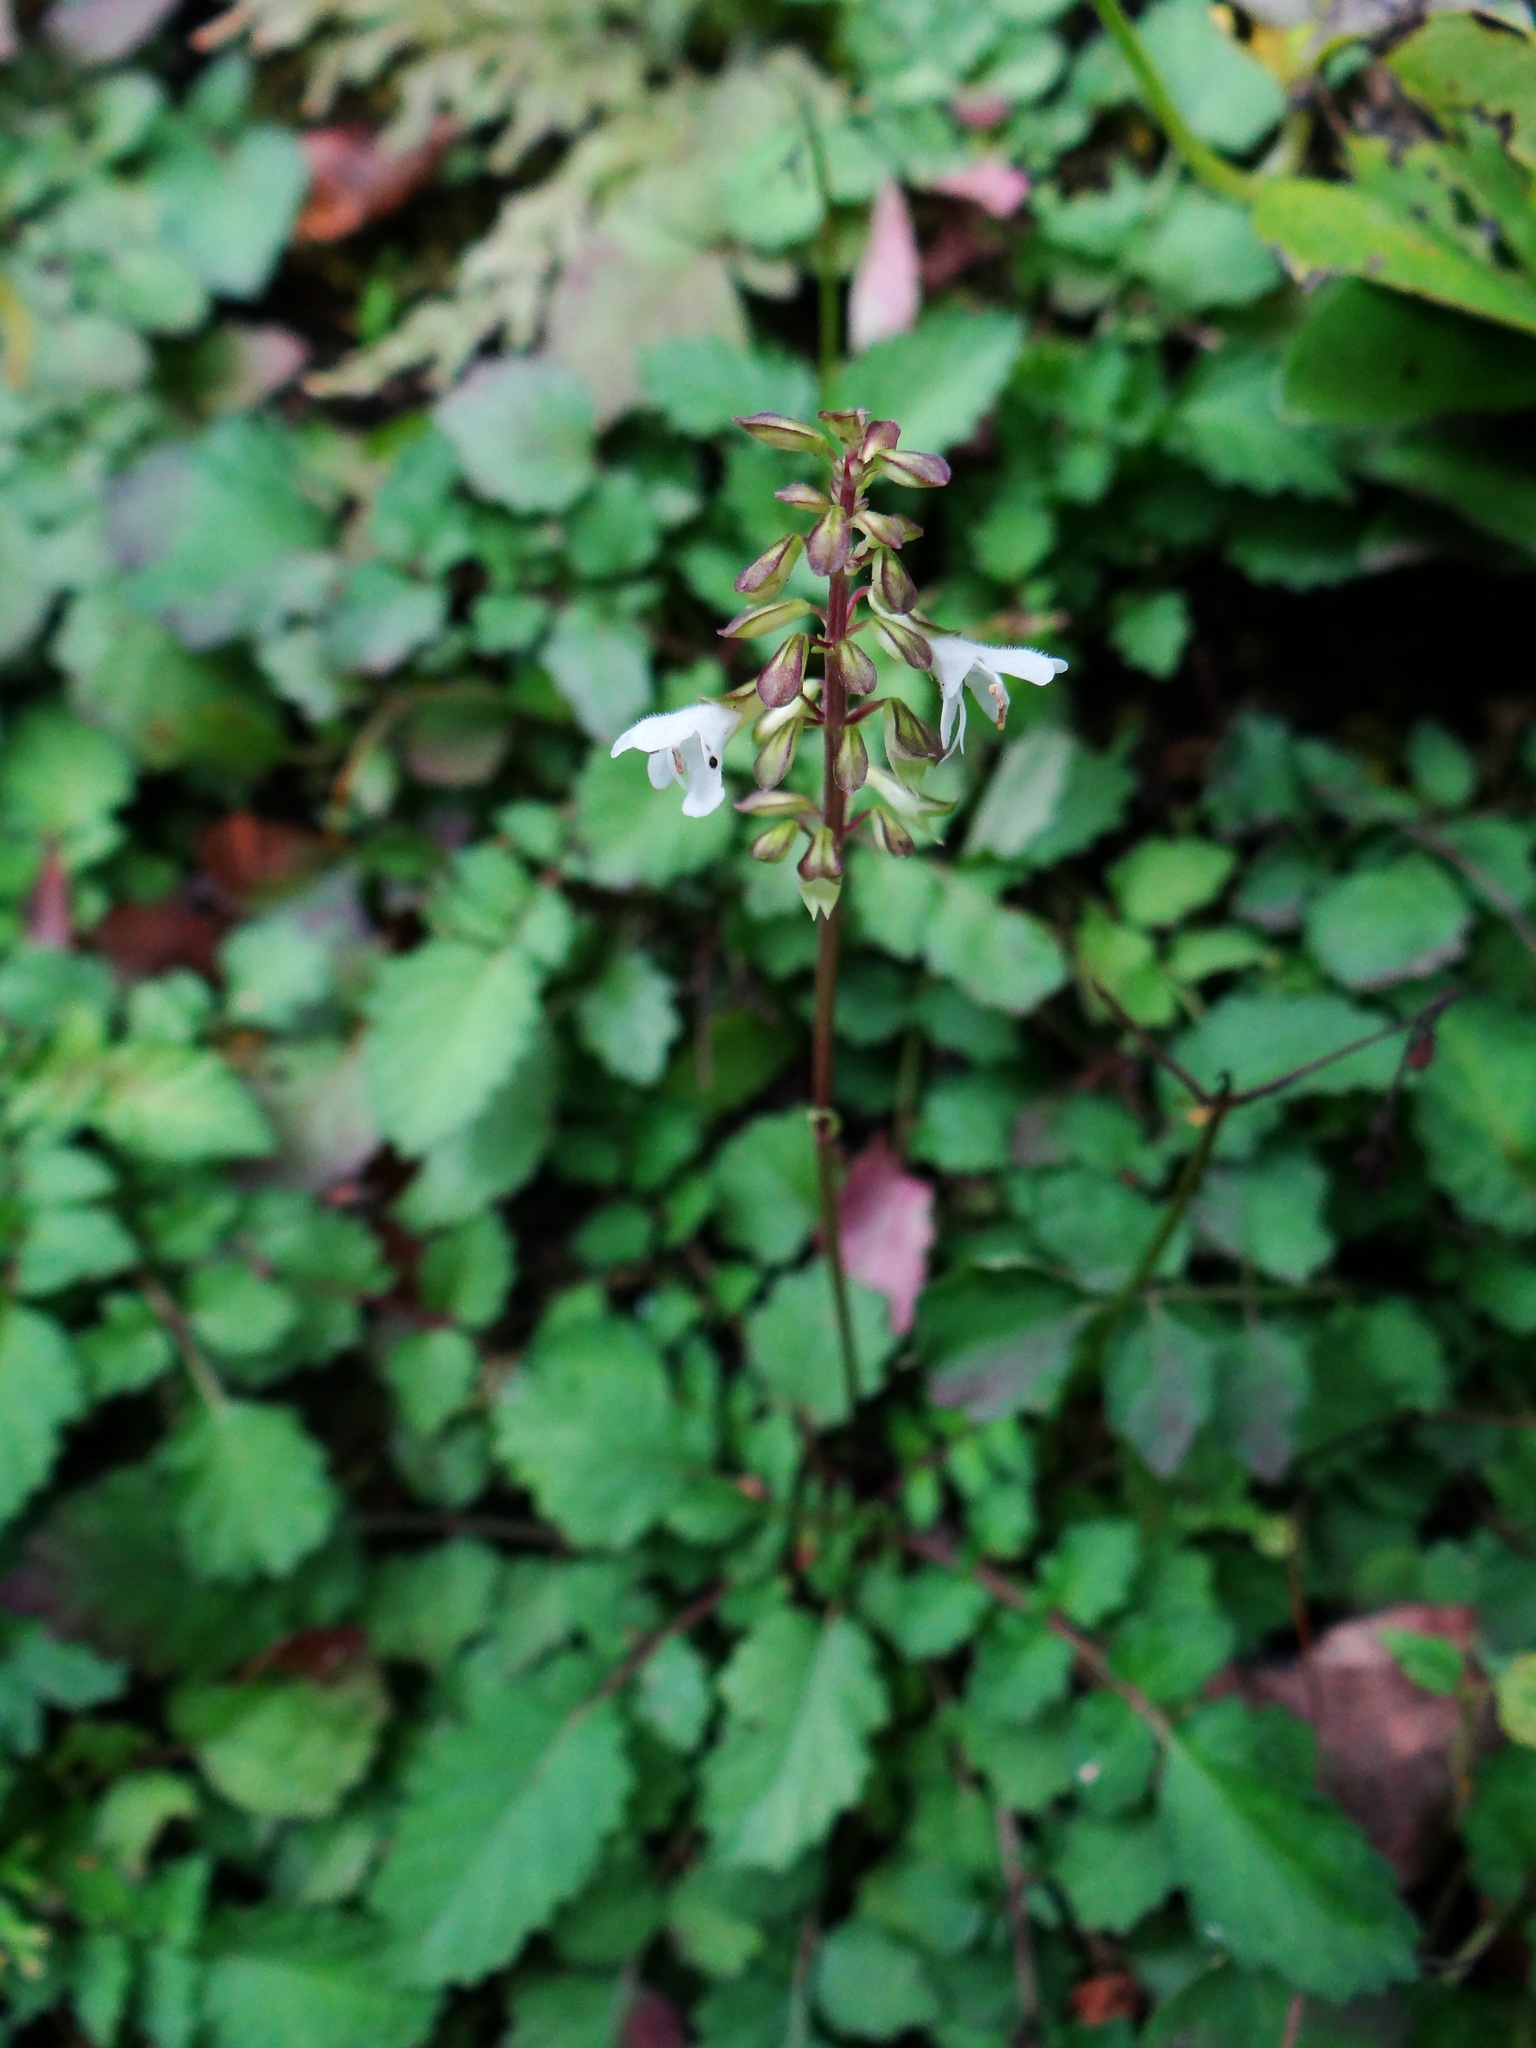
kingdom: Plantae
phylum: Tracheophyta
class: Magnoliopsida
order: Lamiales
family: Lamiaceae
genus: Salvia
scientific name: Salvia hayatae
